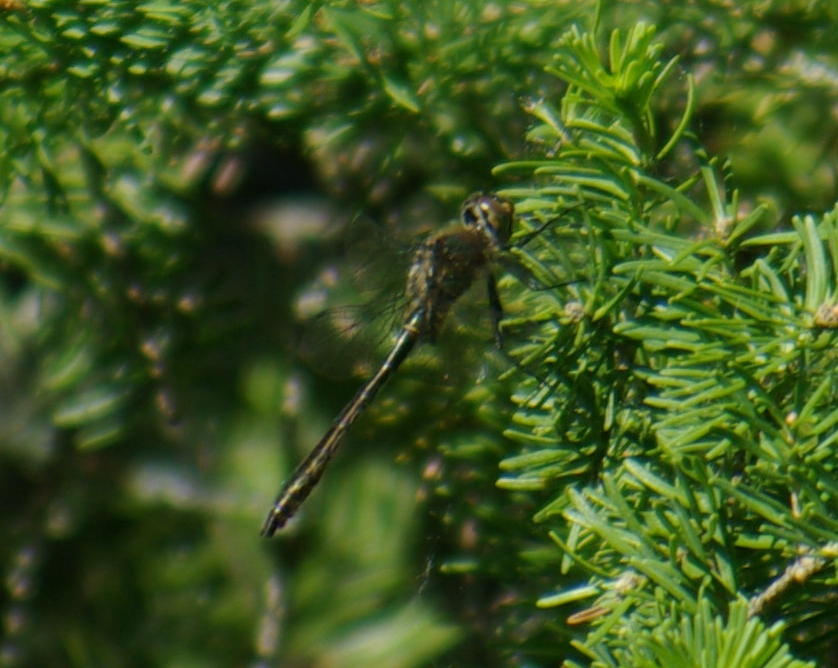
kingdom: Animalia
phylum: Arthropoda
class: Insecta
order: Odonata
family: Corduliidae
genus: Cordulia
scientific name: Cordulia shurtleffii
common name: American emerald
